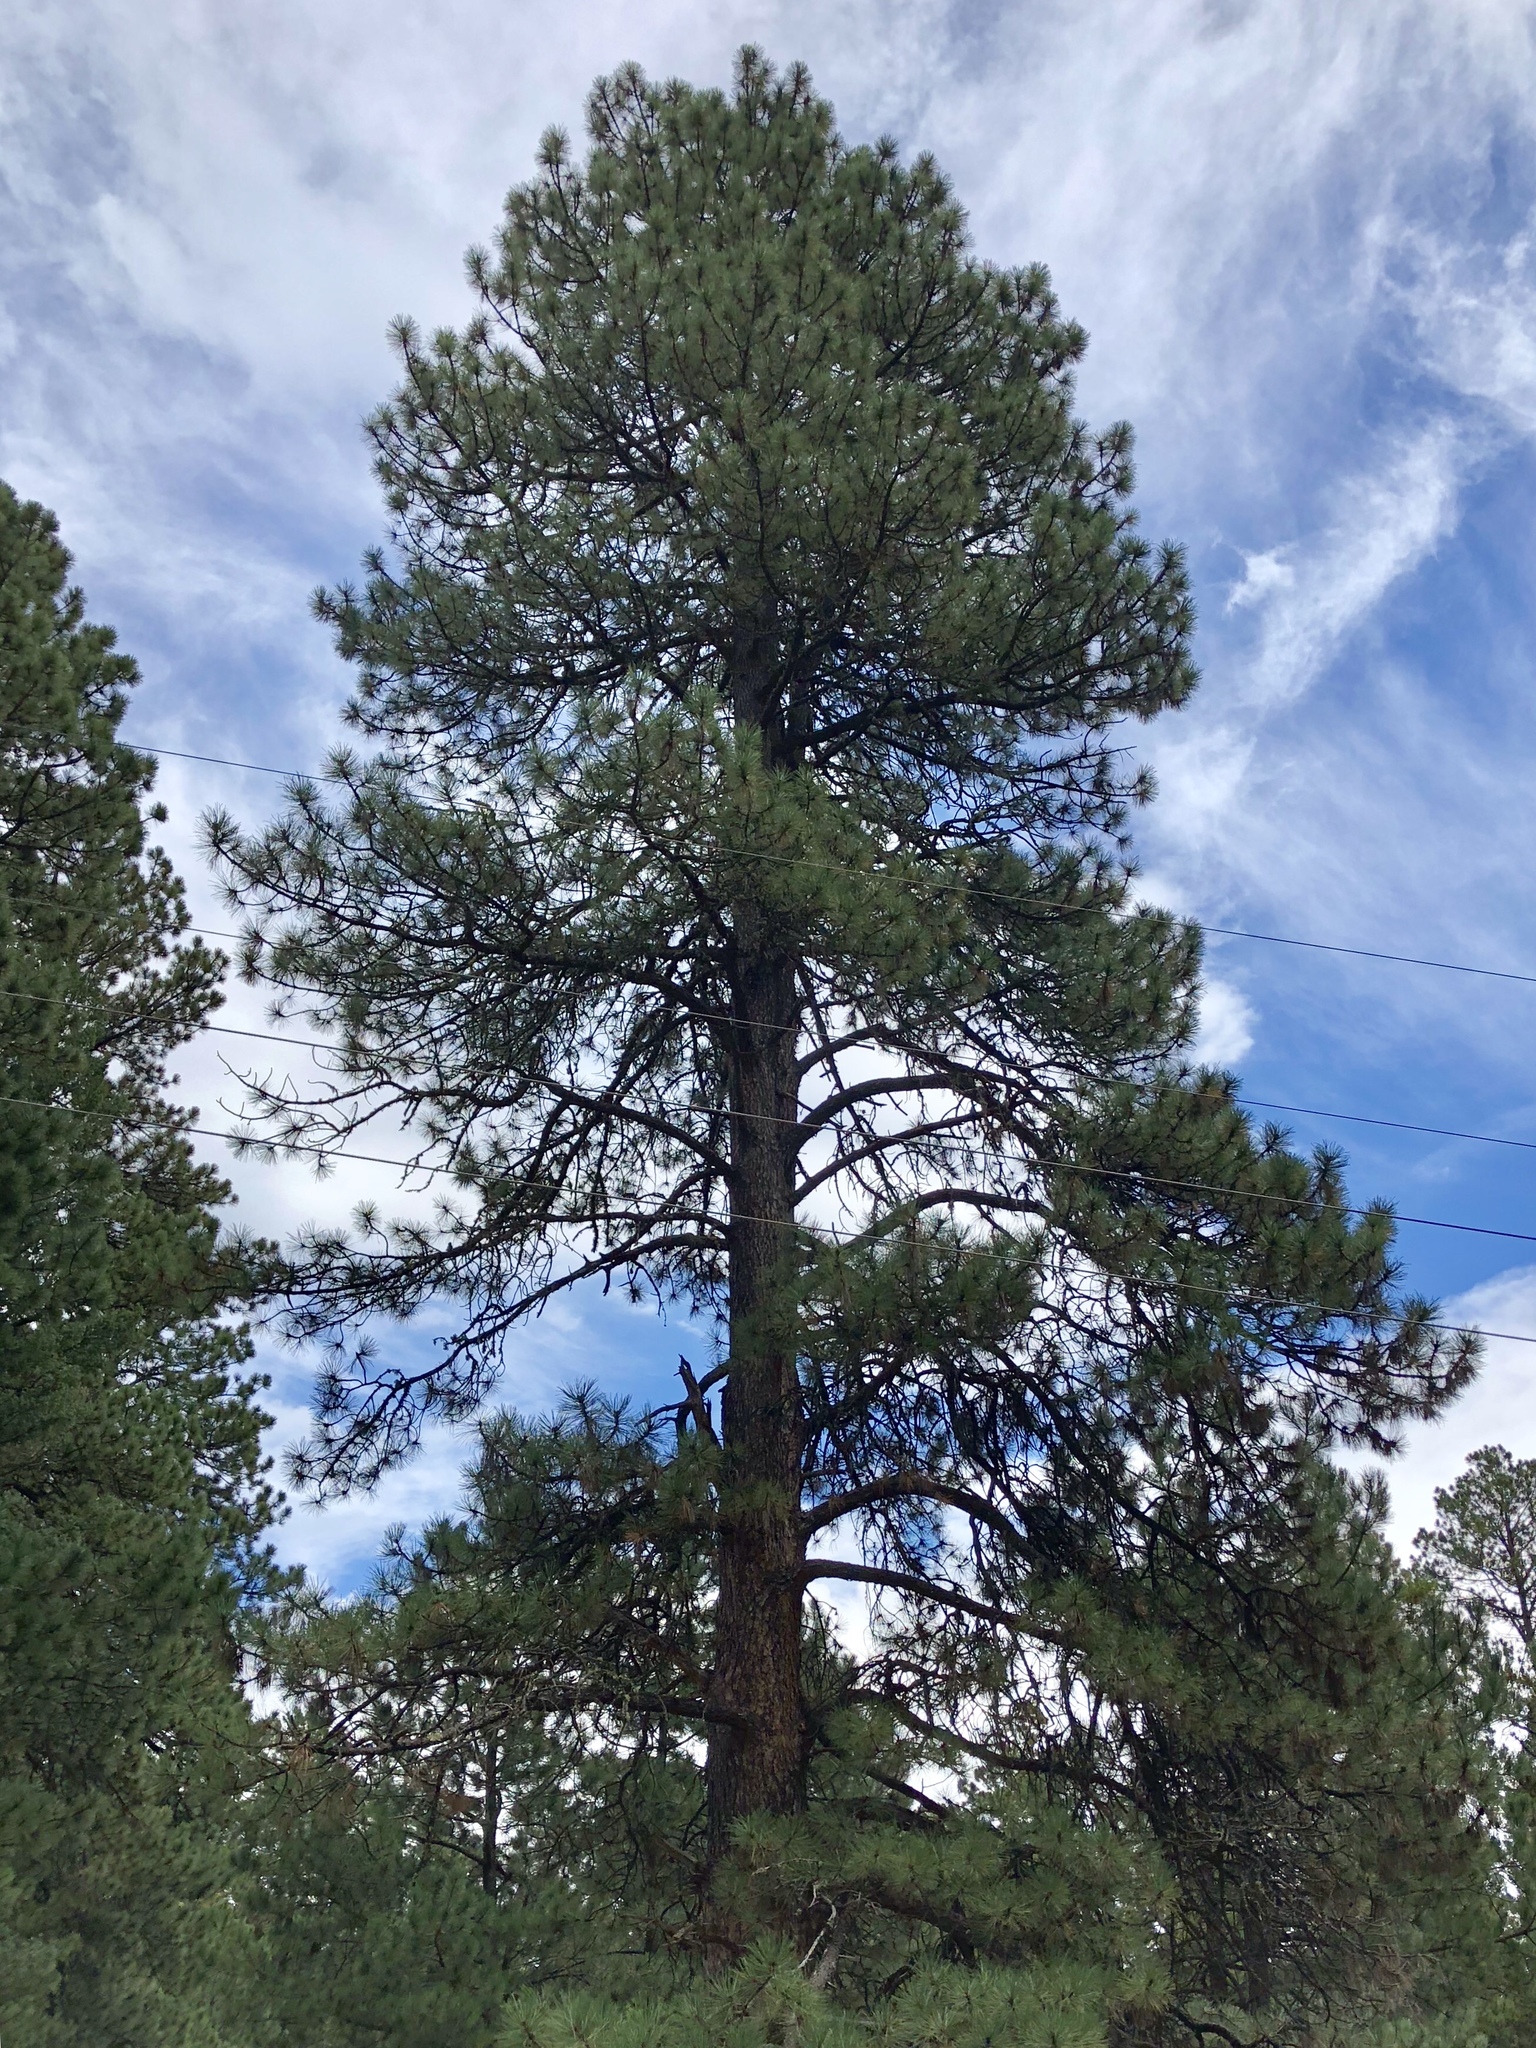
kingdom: Plantae
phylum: Tracheophyta
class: Pinopsida
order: Pinales
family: Pinaceae
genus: Pinus
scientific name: Pinus ponderosa
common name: Western yellow-pine
